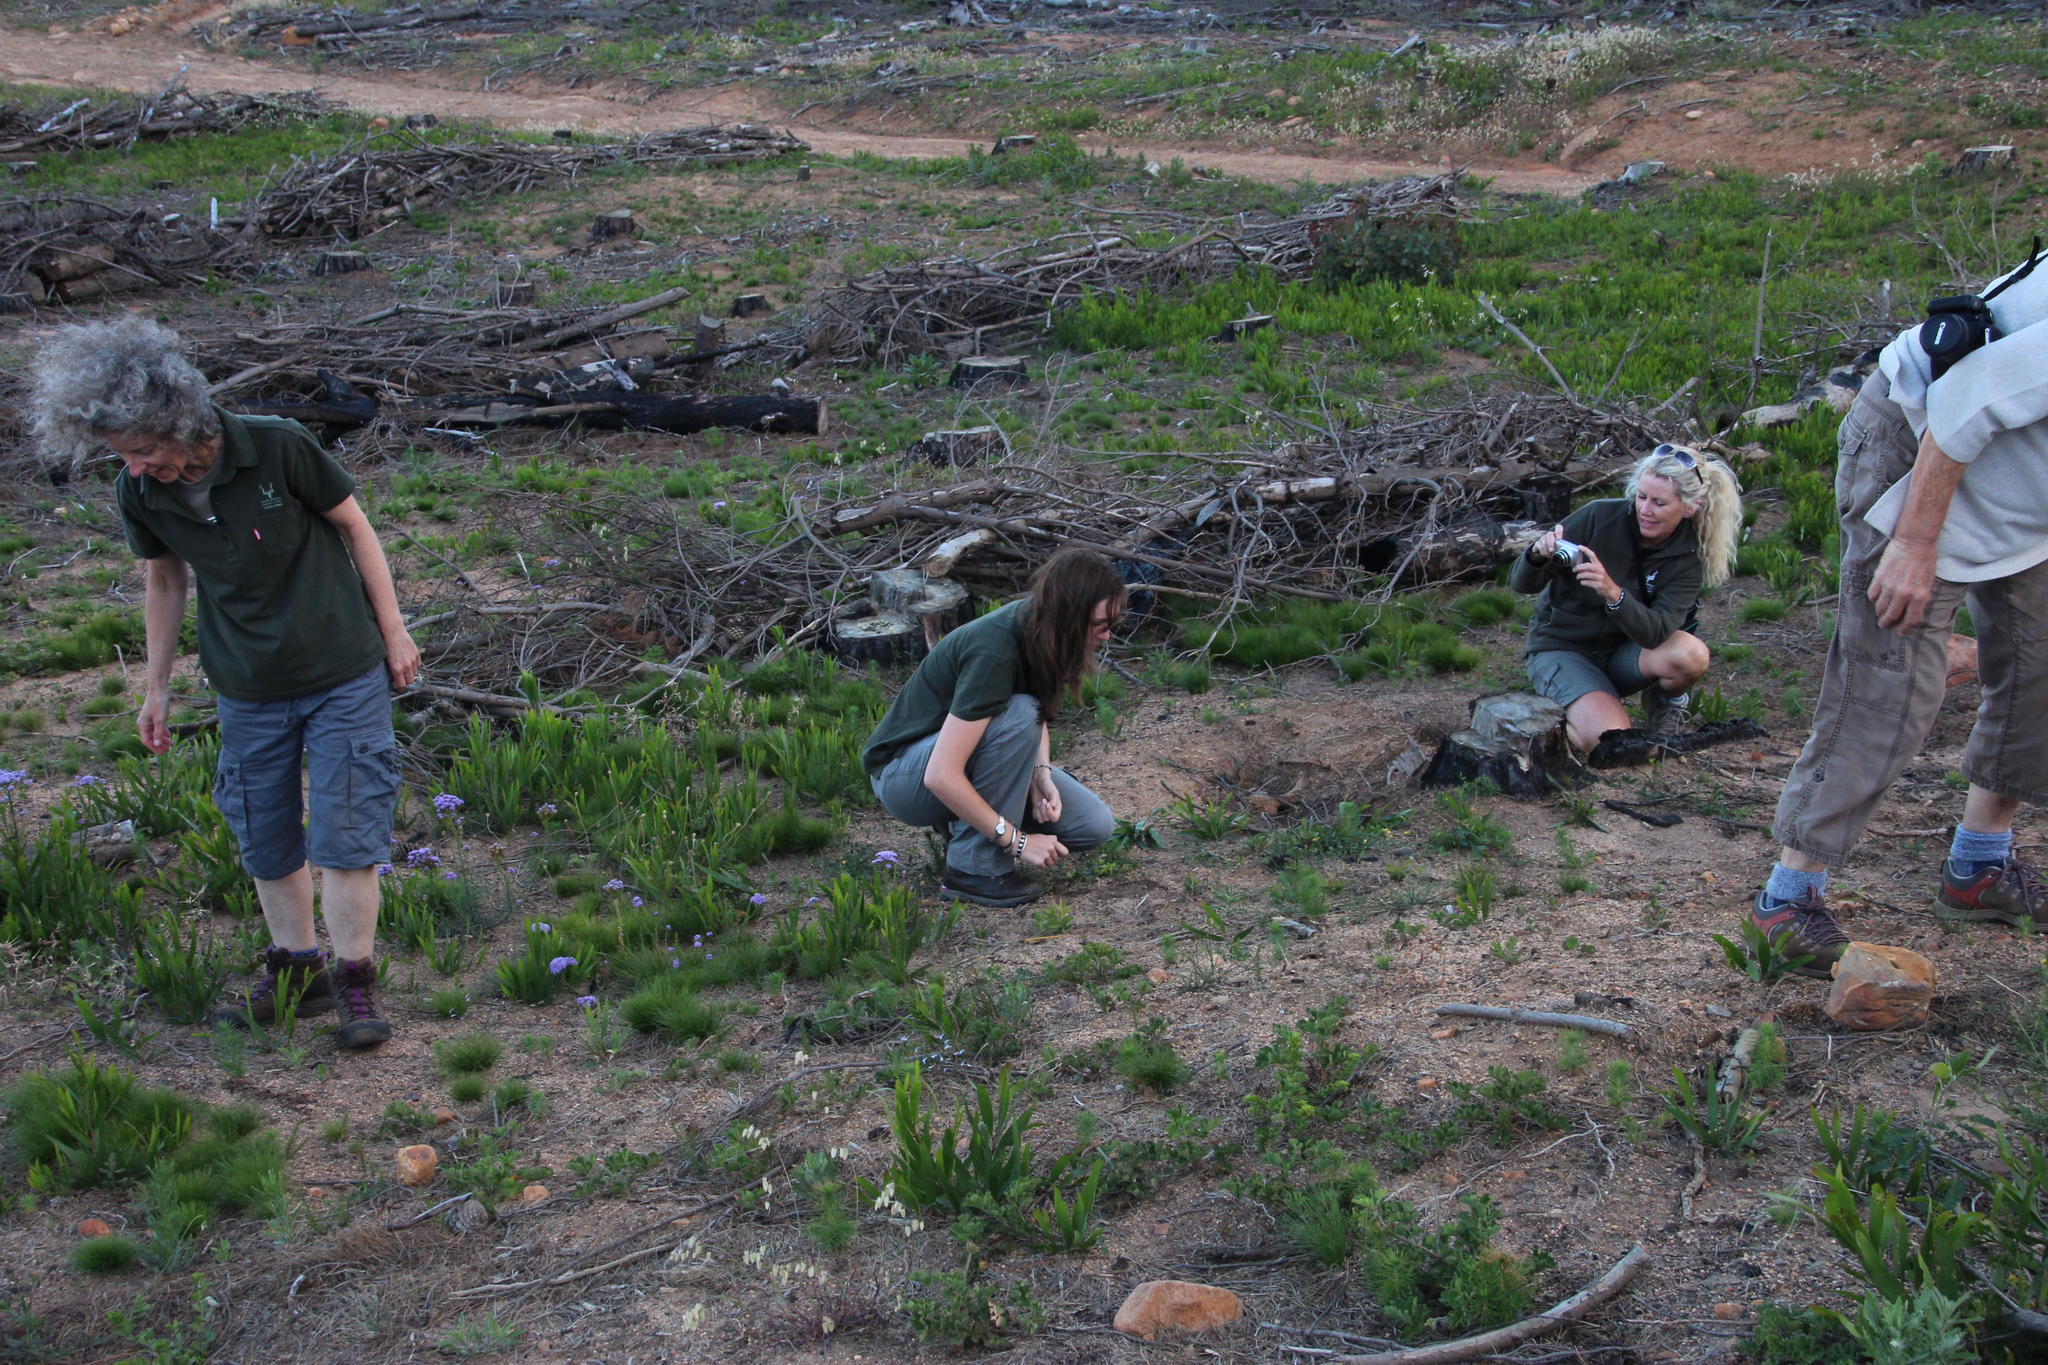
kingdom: Plantae
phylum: Tracheophyta
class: Magnoliopsida
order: Proteales
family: Proteaceae
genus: Protea
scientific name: Protea lepidocarpodendron
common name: Black-bearded protea
